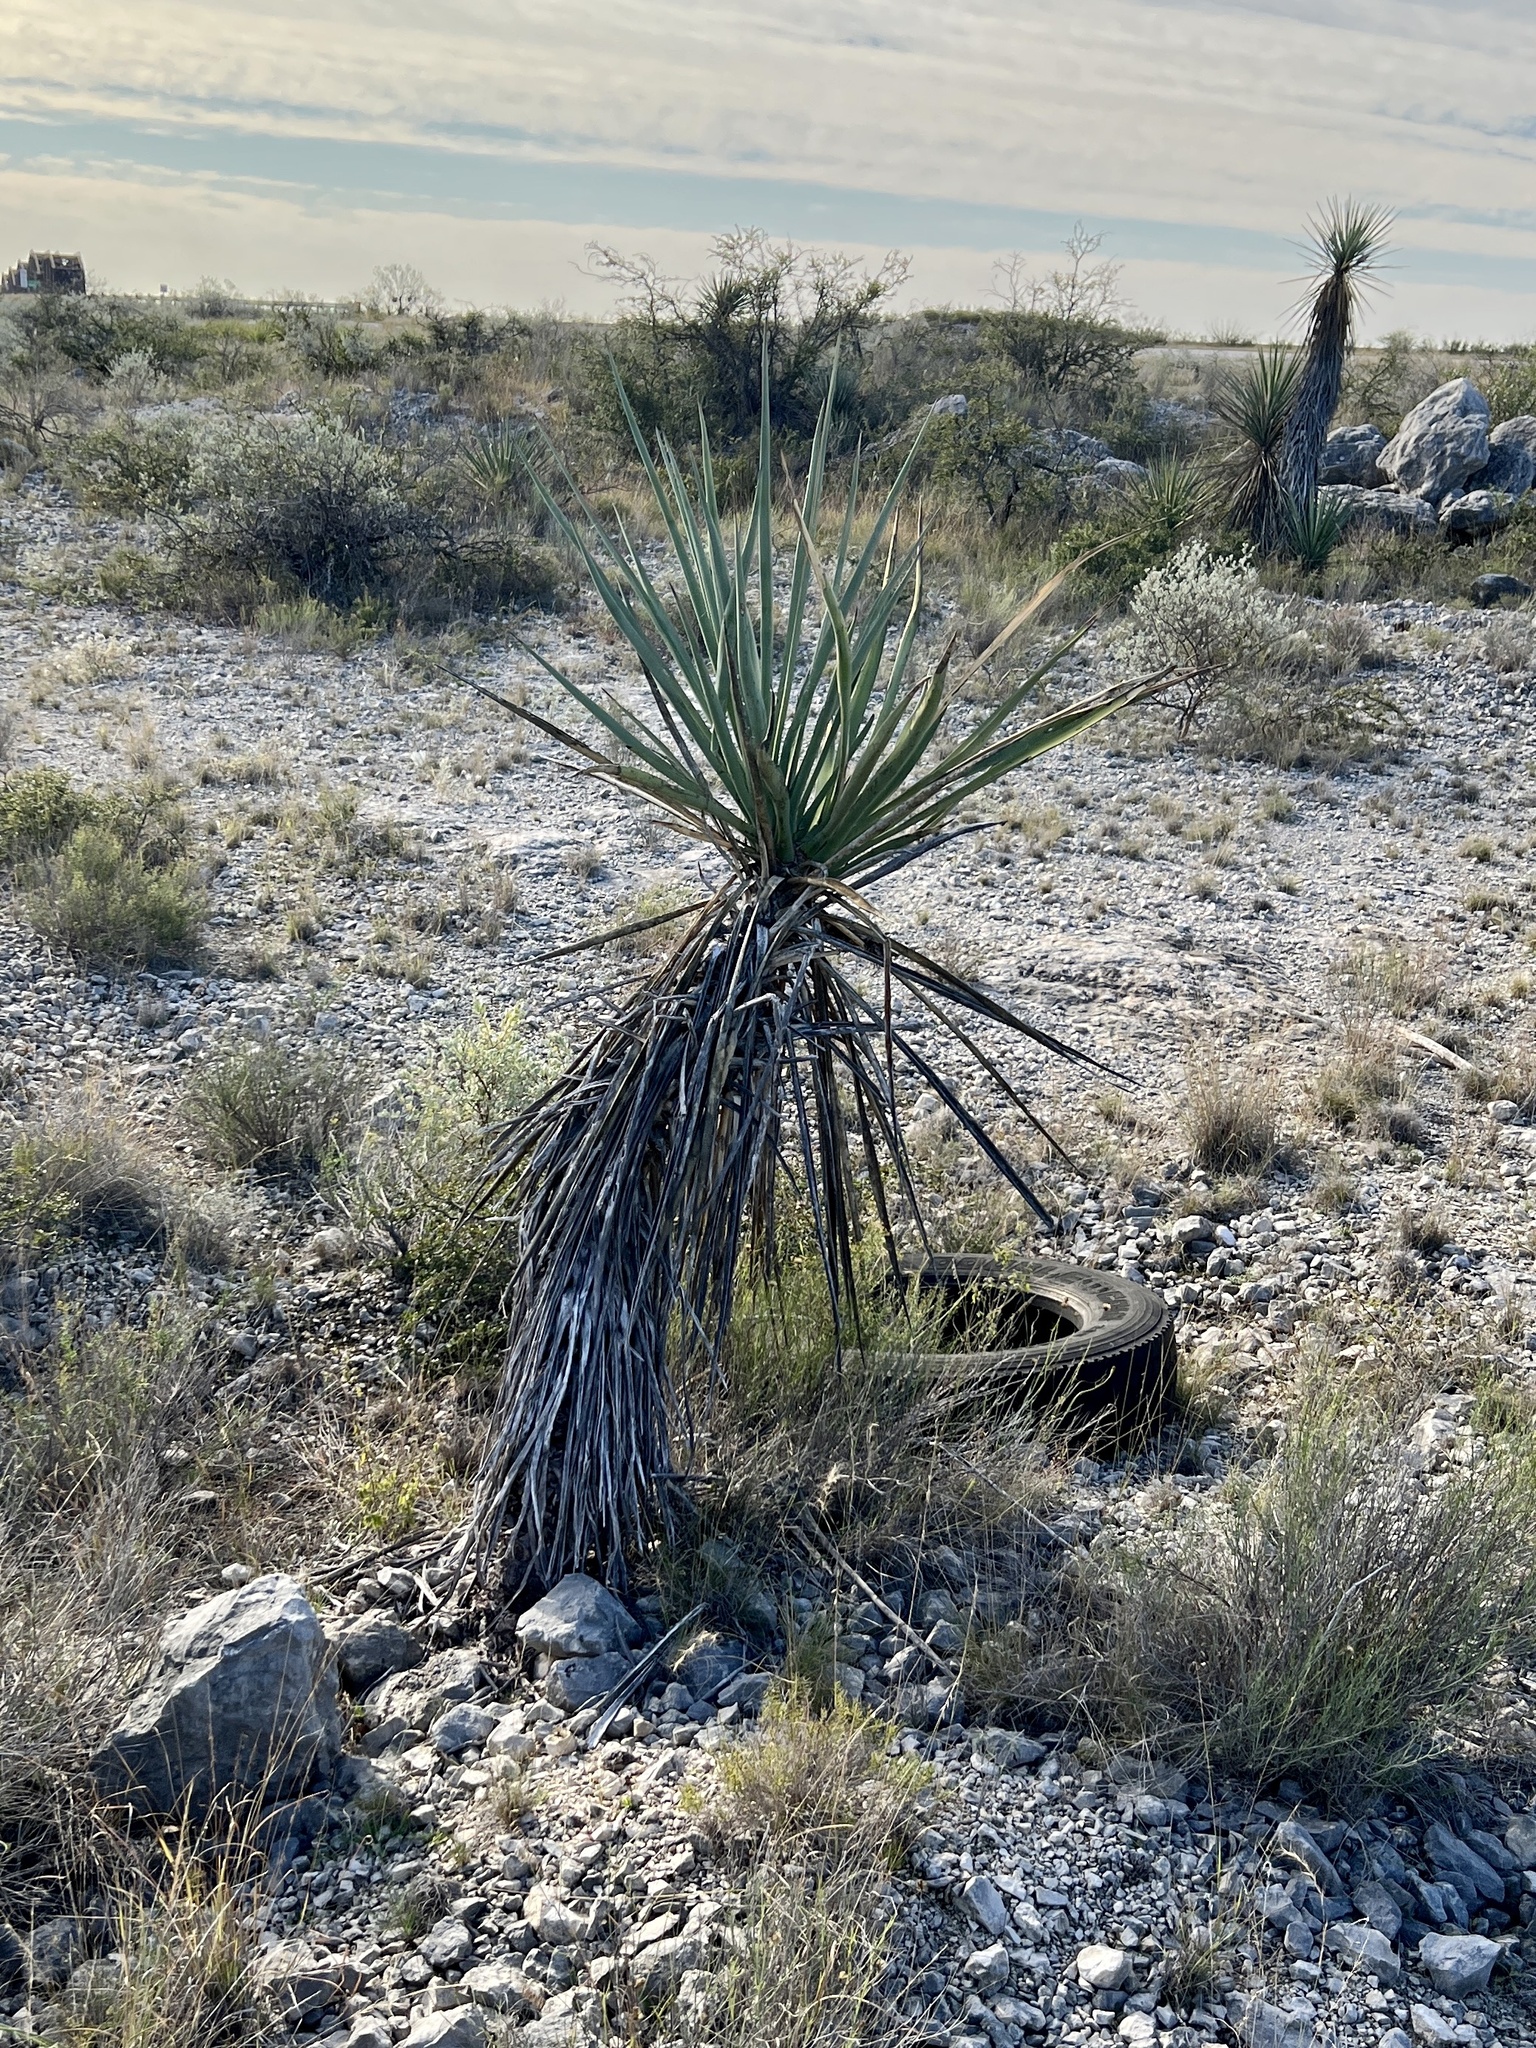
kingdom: Plantae
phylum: Tracheophyta
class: Liliopsida
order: Asparagales
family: Asparagaceae
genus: Yucca
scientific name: Yucca treculiana
